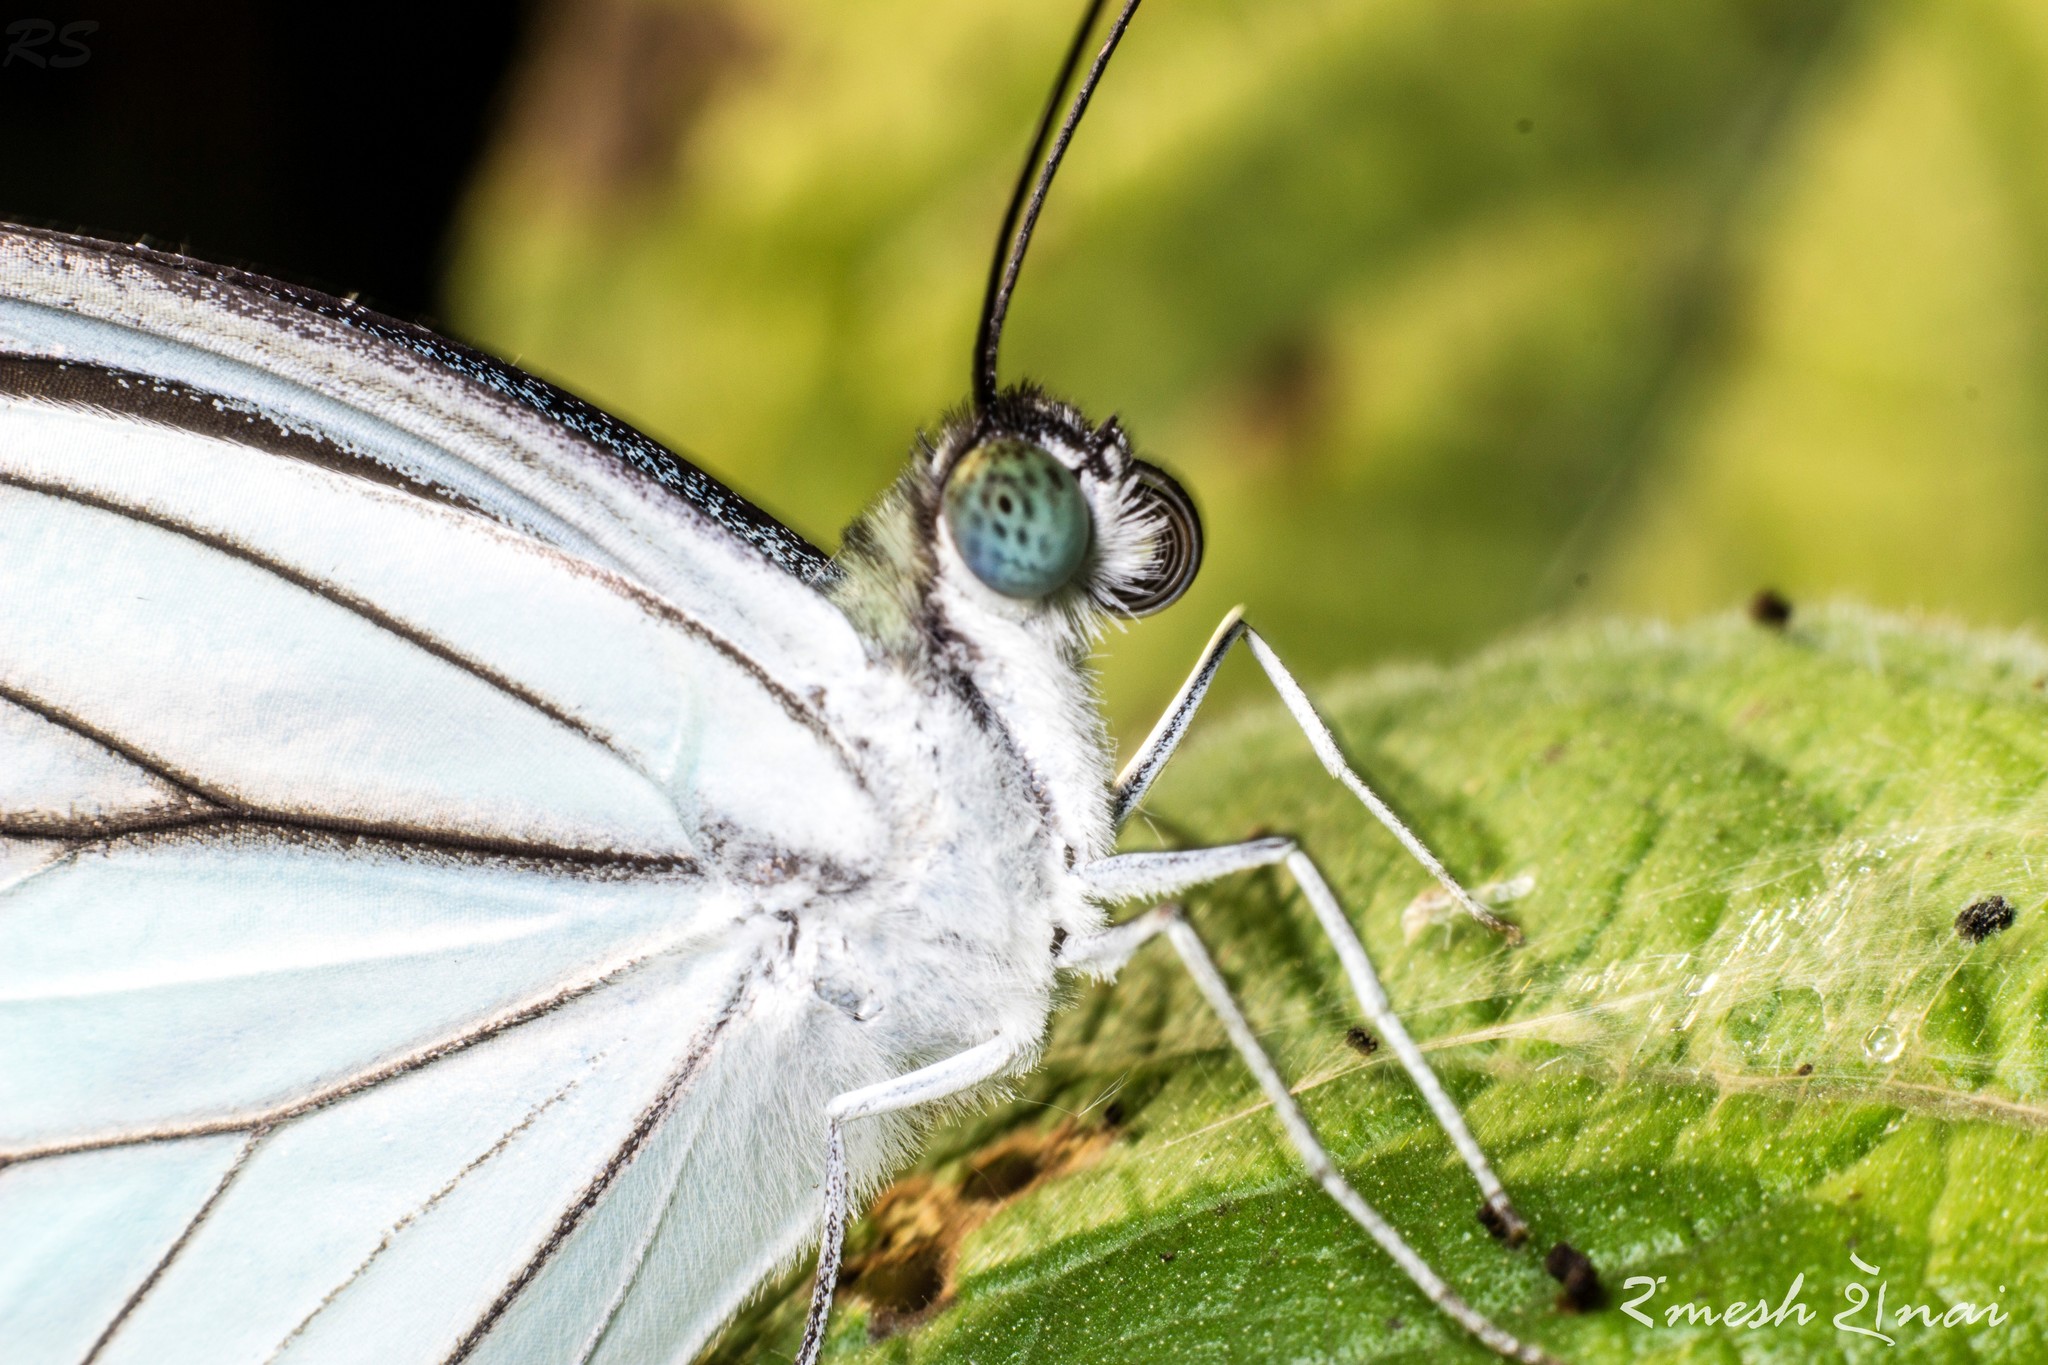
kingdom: Animalia
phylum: Arthropoda
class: Insecta
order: Lepidoptera
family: Pieridae
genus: Pareronia
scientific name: Pareronia hippia
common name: Indian wanderer
